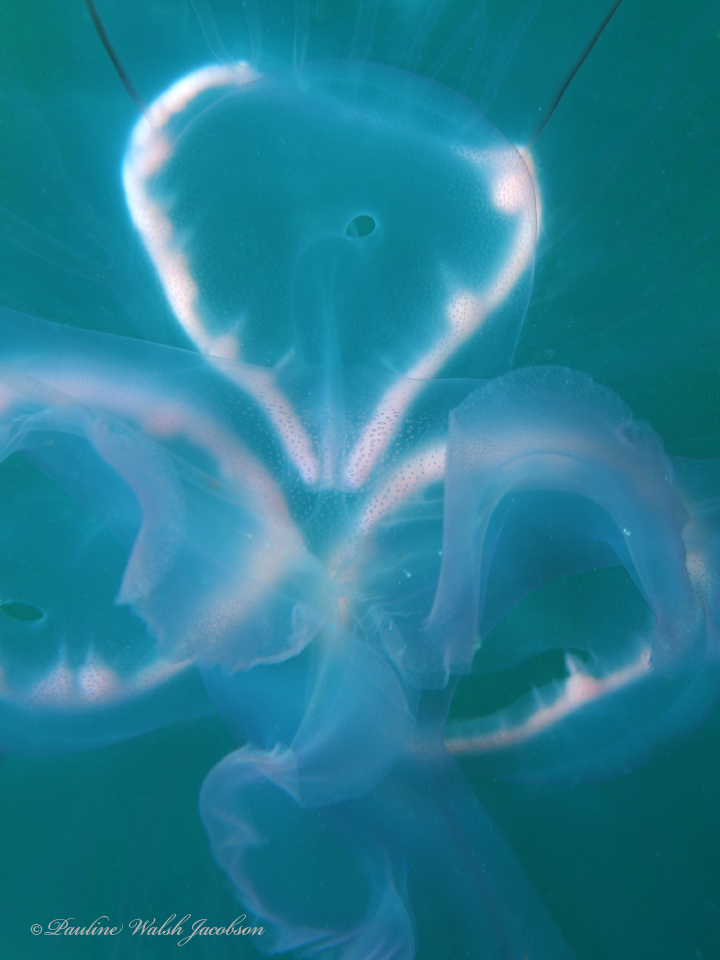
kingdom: Animalia
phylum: Cnidaria
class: Scyphozoa
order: Semaeostomeae
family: Ulmaridae
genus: Aurelia
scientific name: Aurelia marginalis
